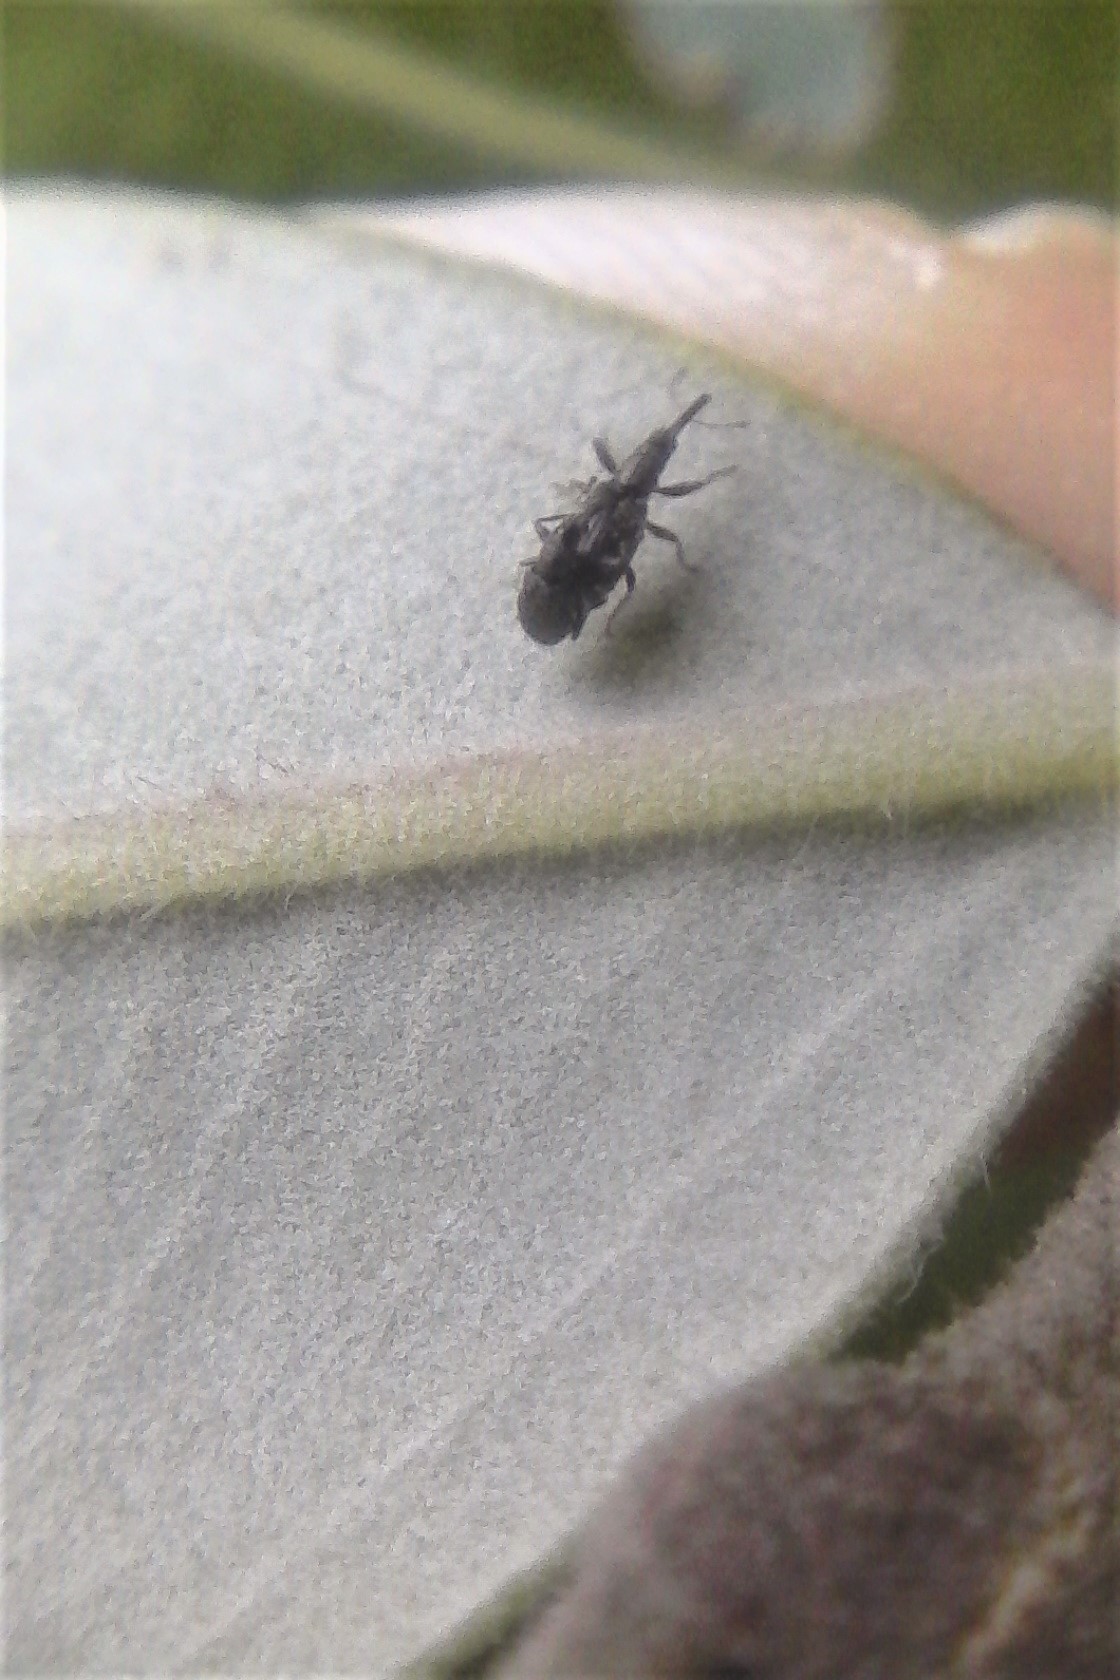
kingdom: Animalia
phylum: Arthropoda
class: Insecta
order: Coleoptera
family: Brentidae
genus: Neocyba
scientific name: Neocyba metrosideros
